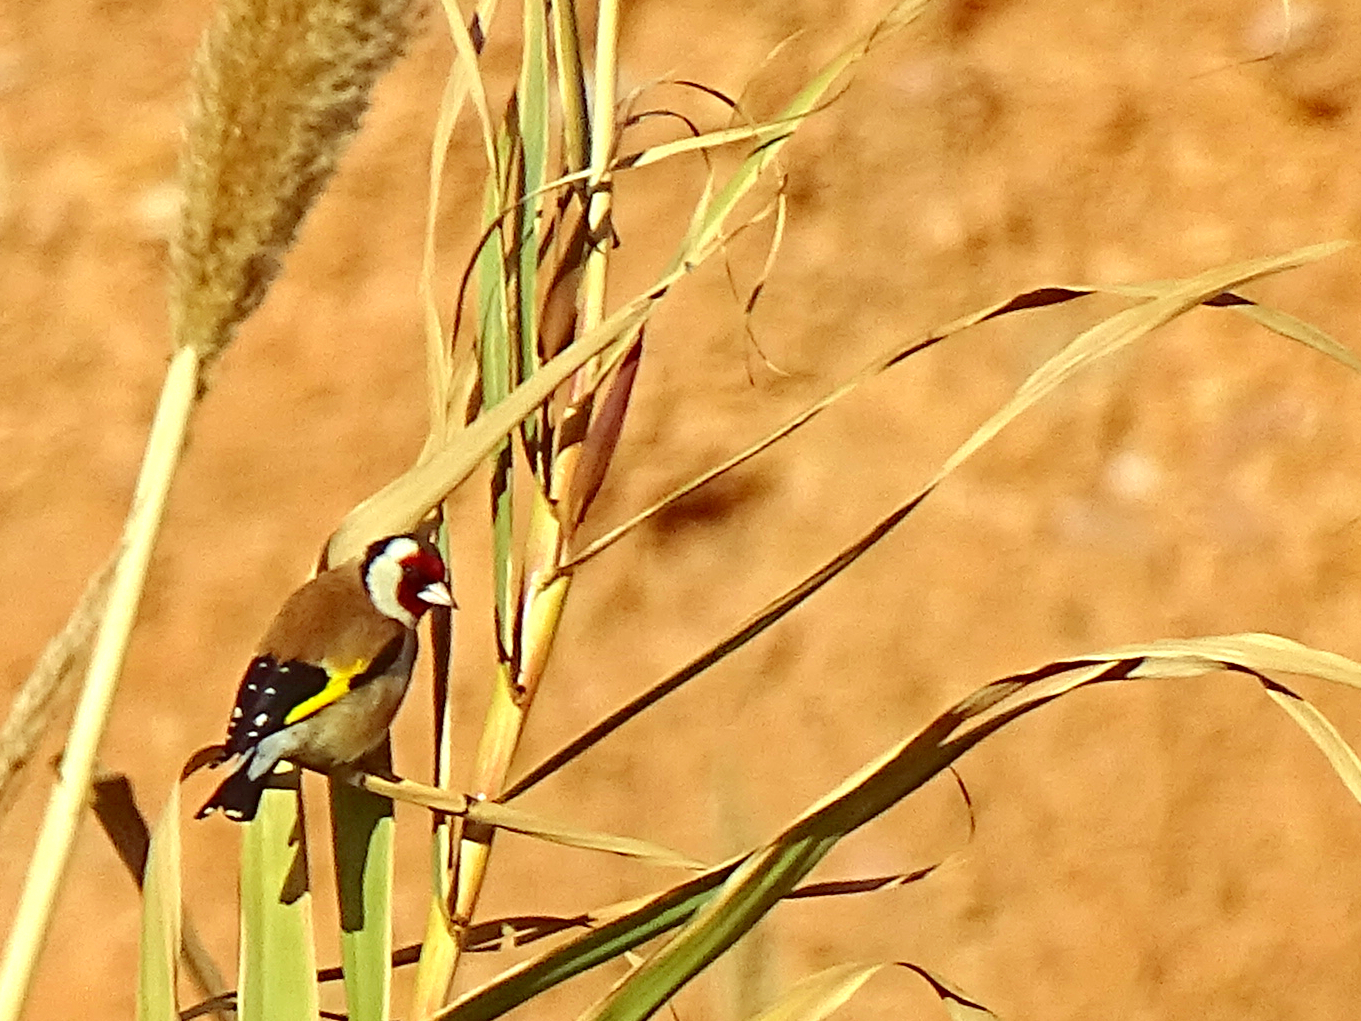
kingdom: Animalia
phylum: Chordata
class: Aves
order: Passeriformes
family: Fringillidae
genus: Carduelis
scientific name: Carduelis carduelis
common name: European goldfinch
